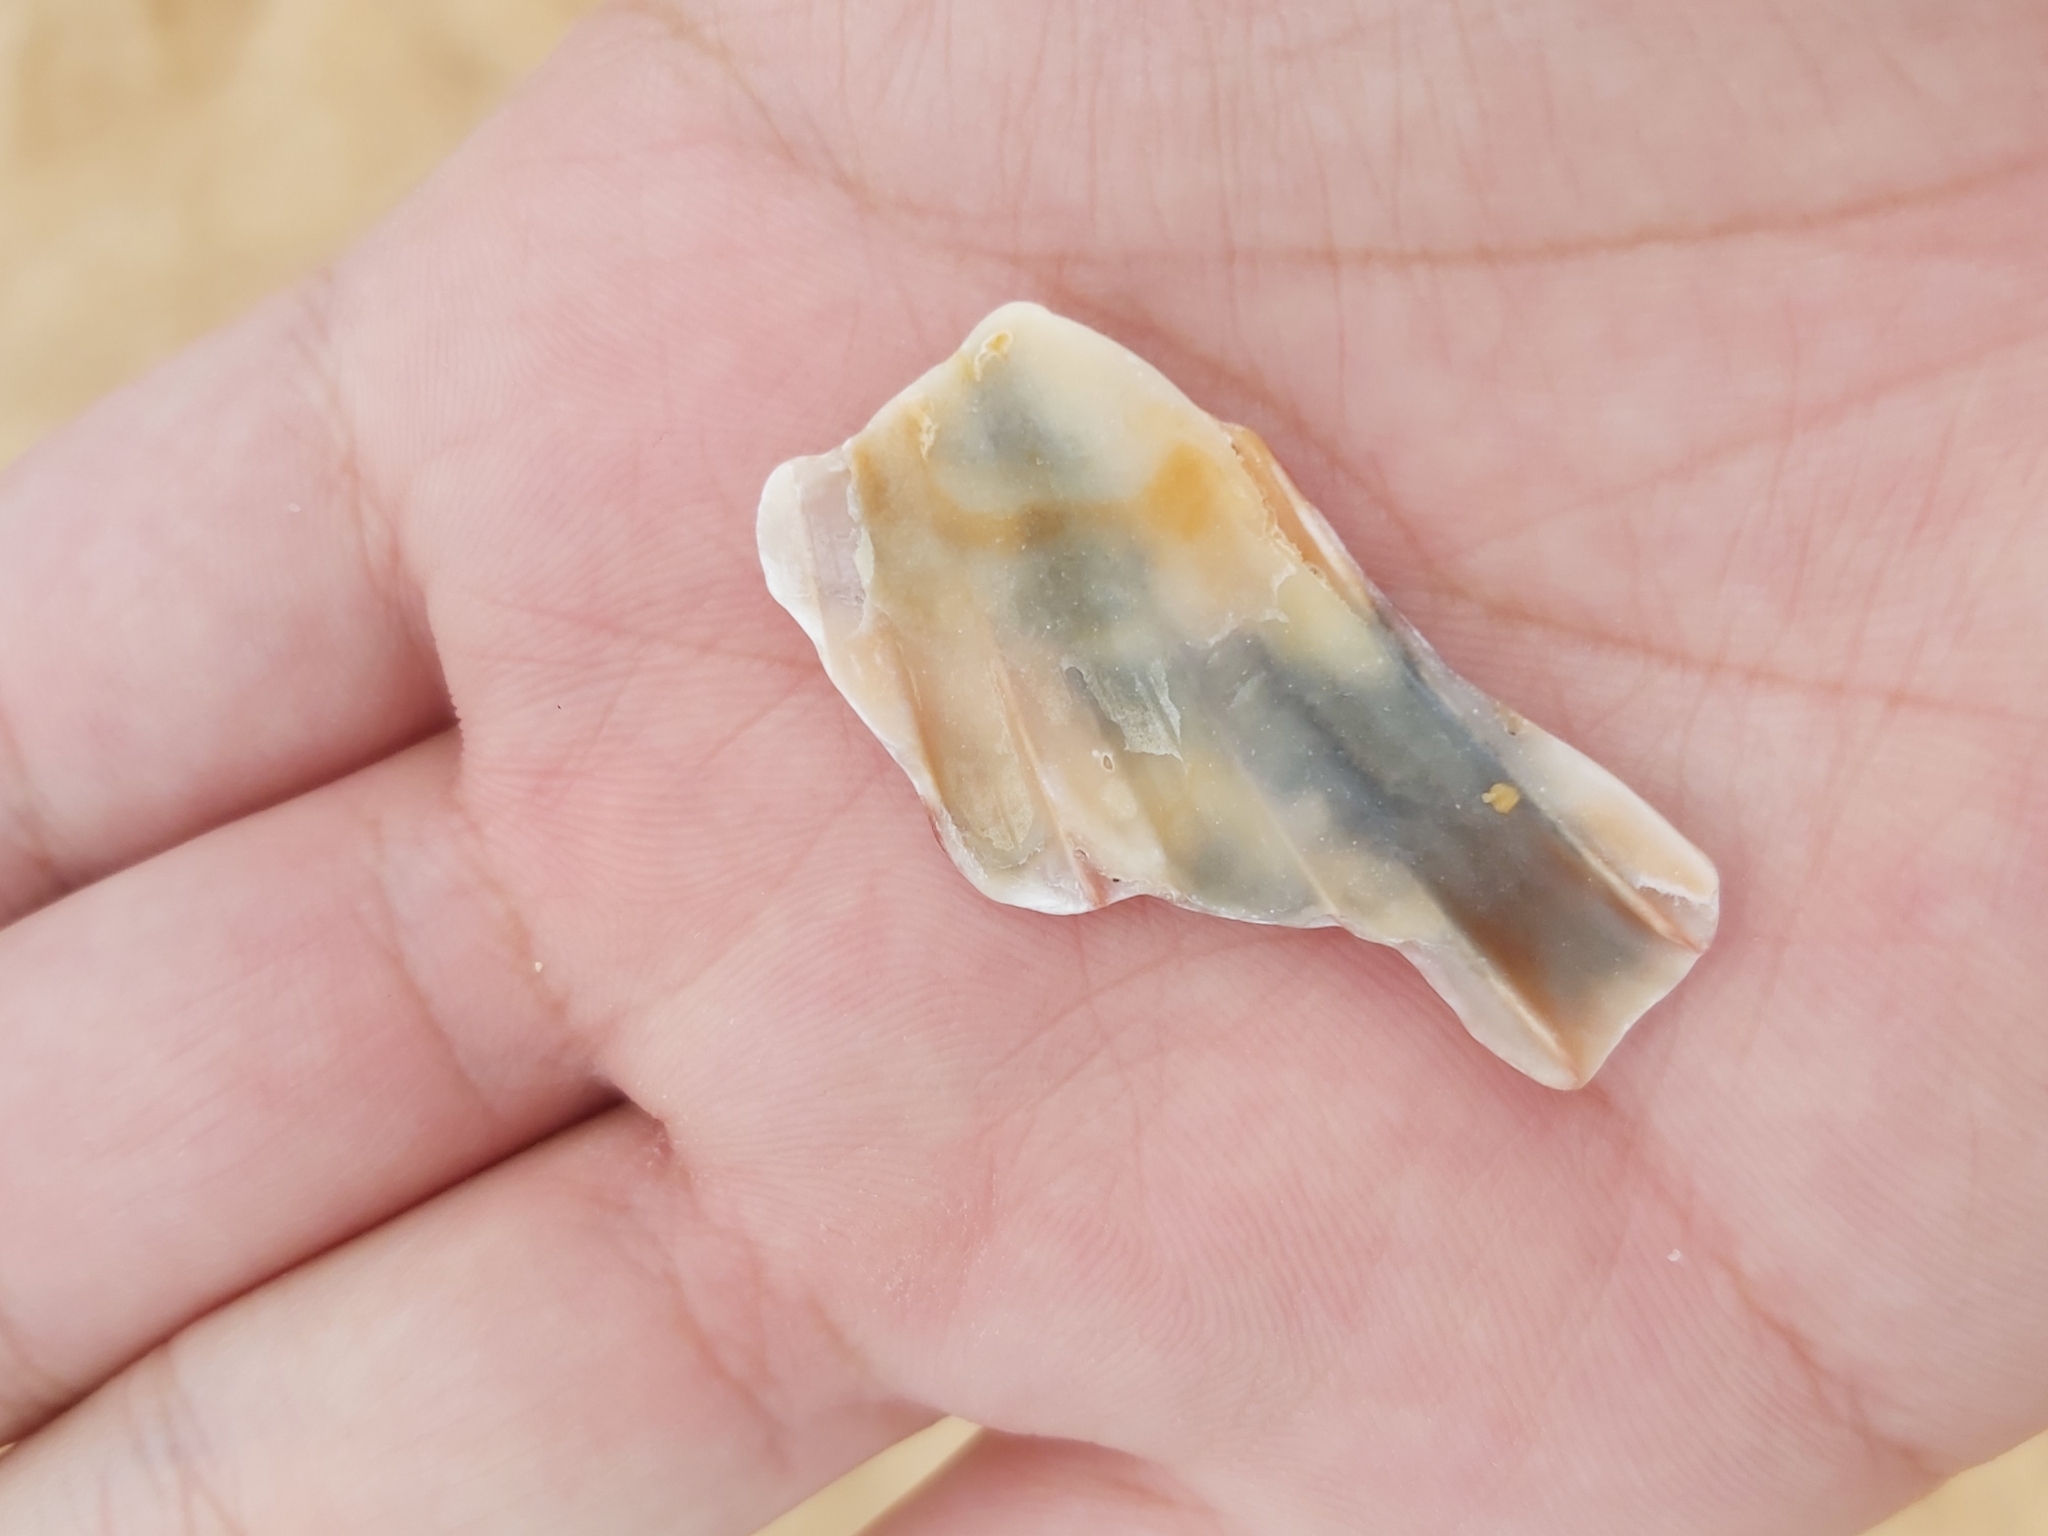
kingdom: Animalia
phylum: Mollusca
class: Bivalvia
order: Pectinida
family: Pectinidae
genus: Pecten
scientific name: Pecten fumatus
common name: Australian scallop
